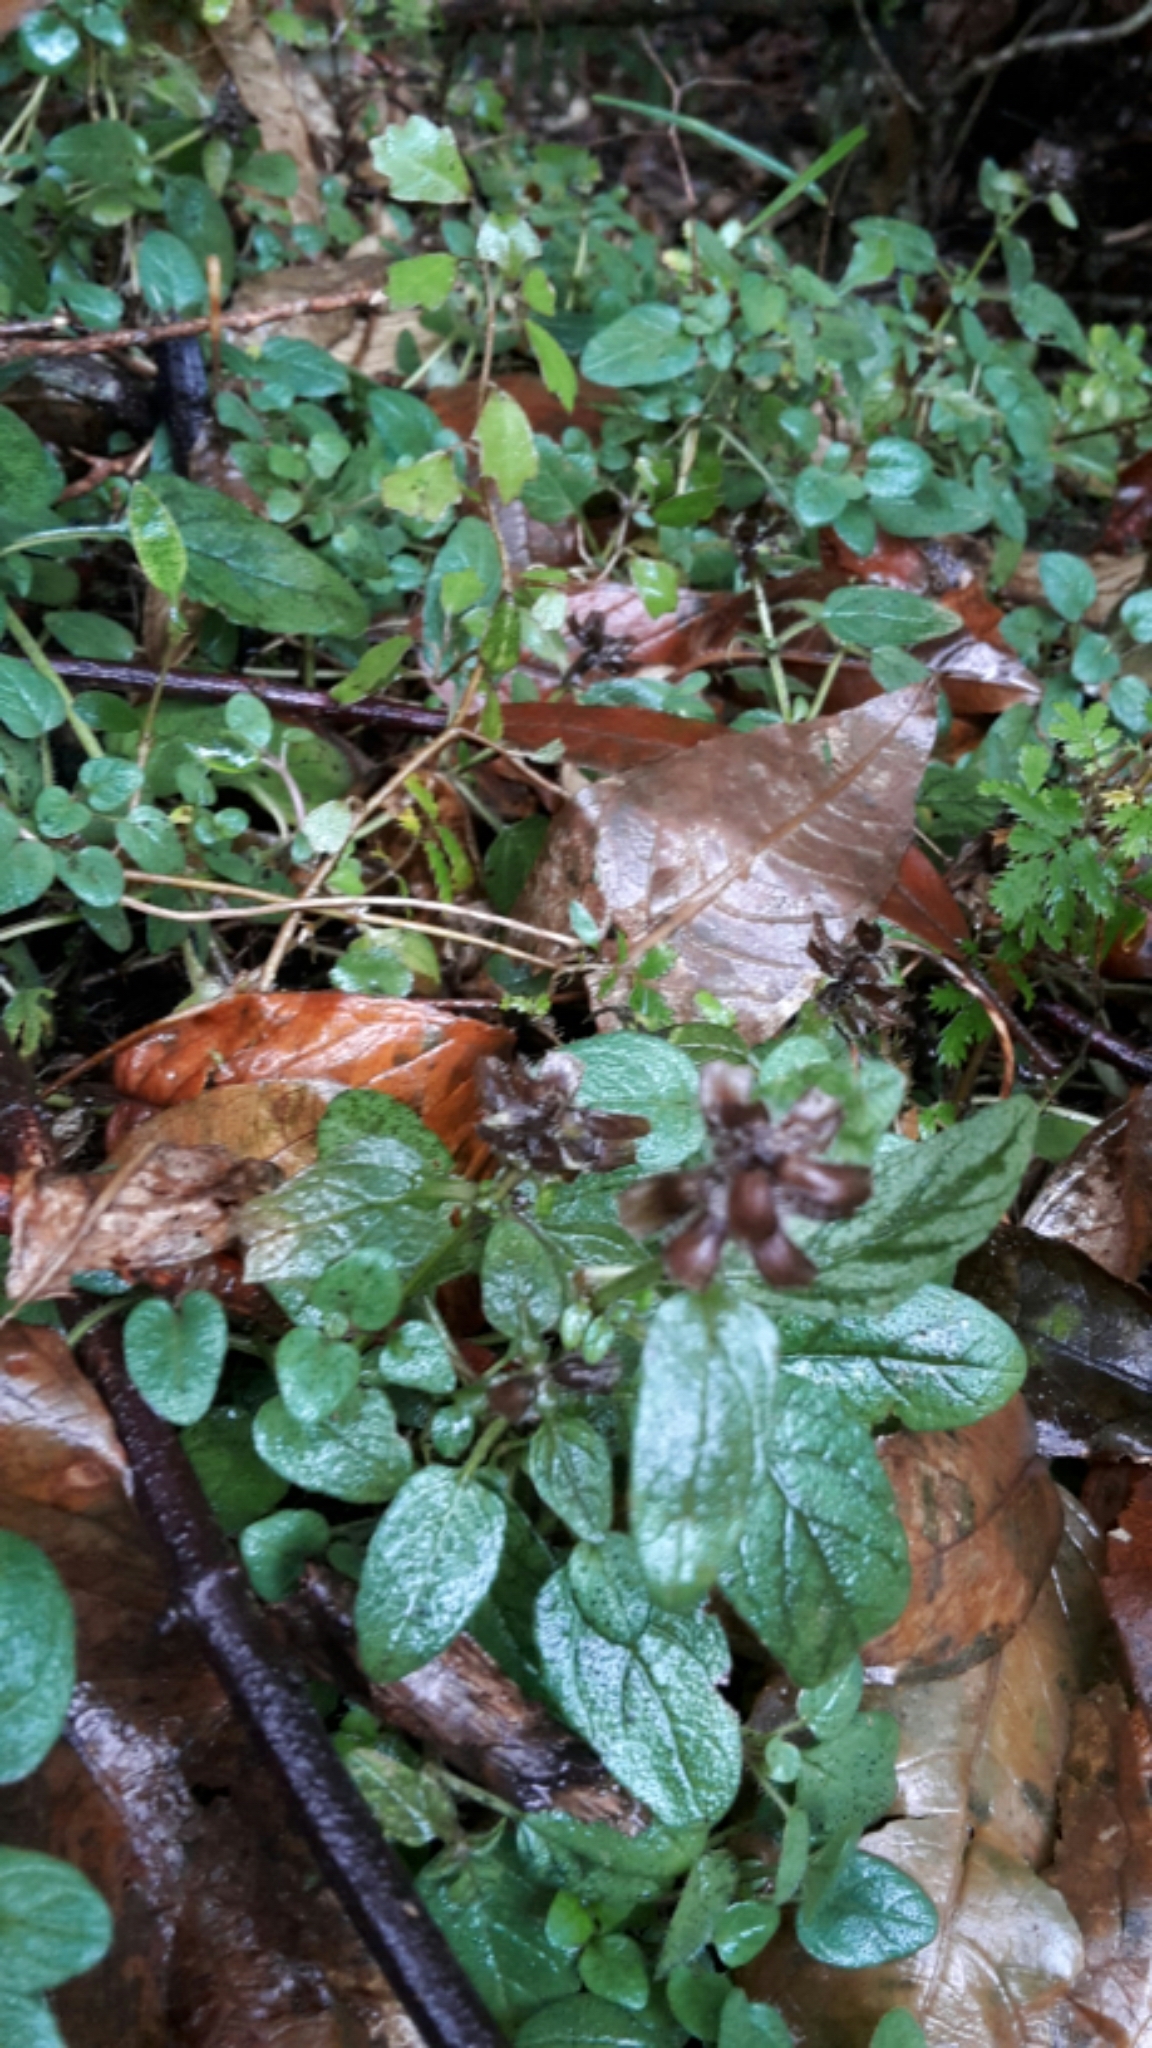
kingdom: Plantae
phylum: Tracheophyta
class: Magnoliopsida
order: Lamiales
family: Lamiaceae
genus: Prunella
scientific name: Prunella vulgaris
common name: Heal-all
